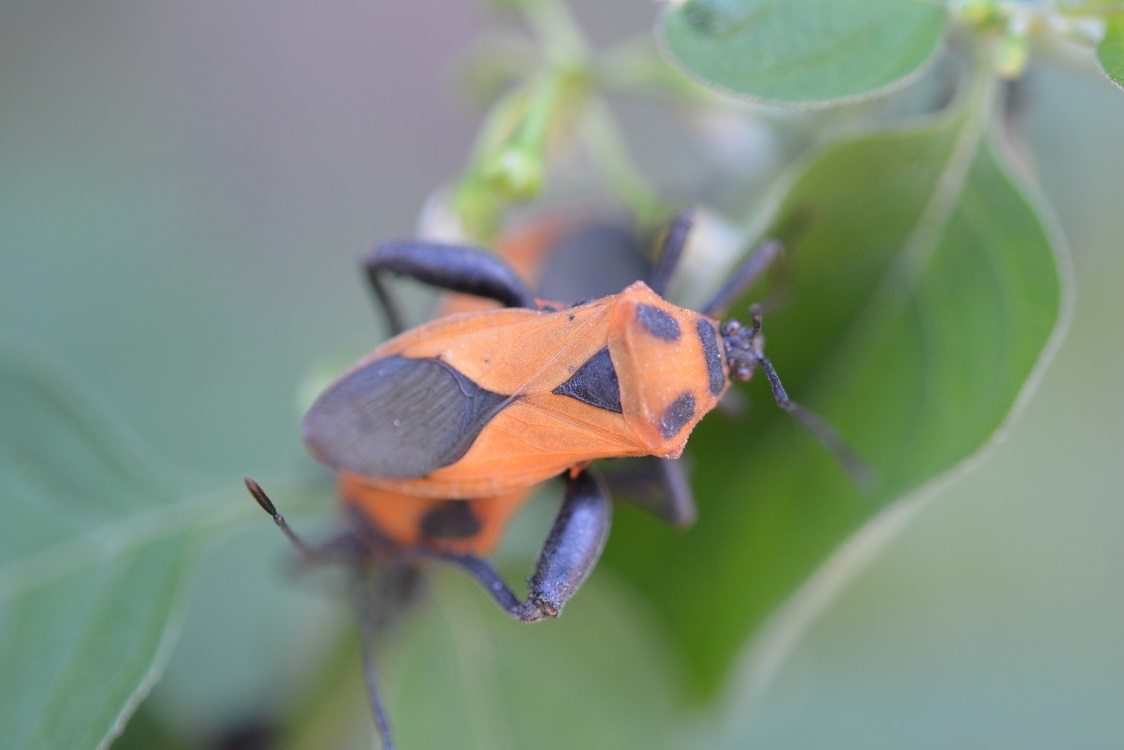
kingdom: Animalia
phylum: Arthropoda
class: Insecta
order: Hemiptera
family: Coreidae
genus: Sagotylus
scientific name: Sagotylus confluens
